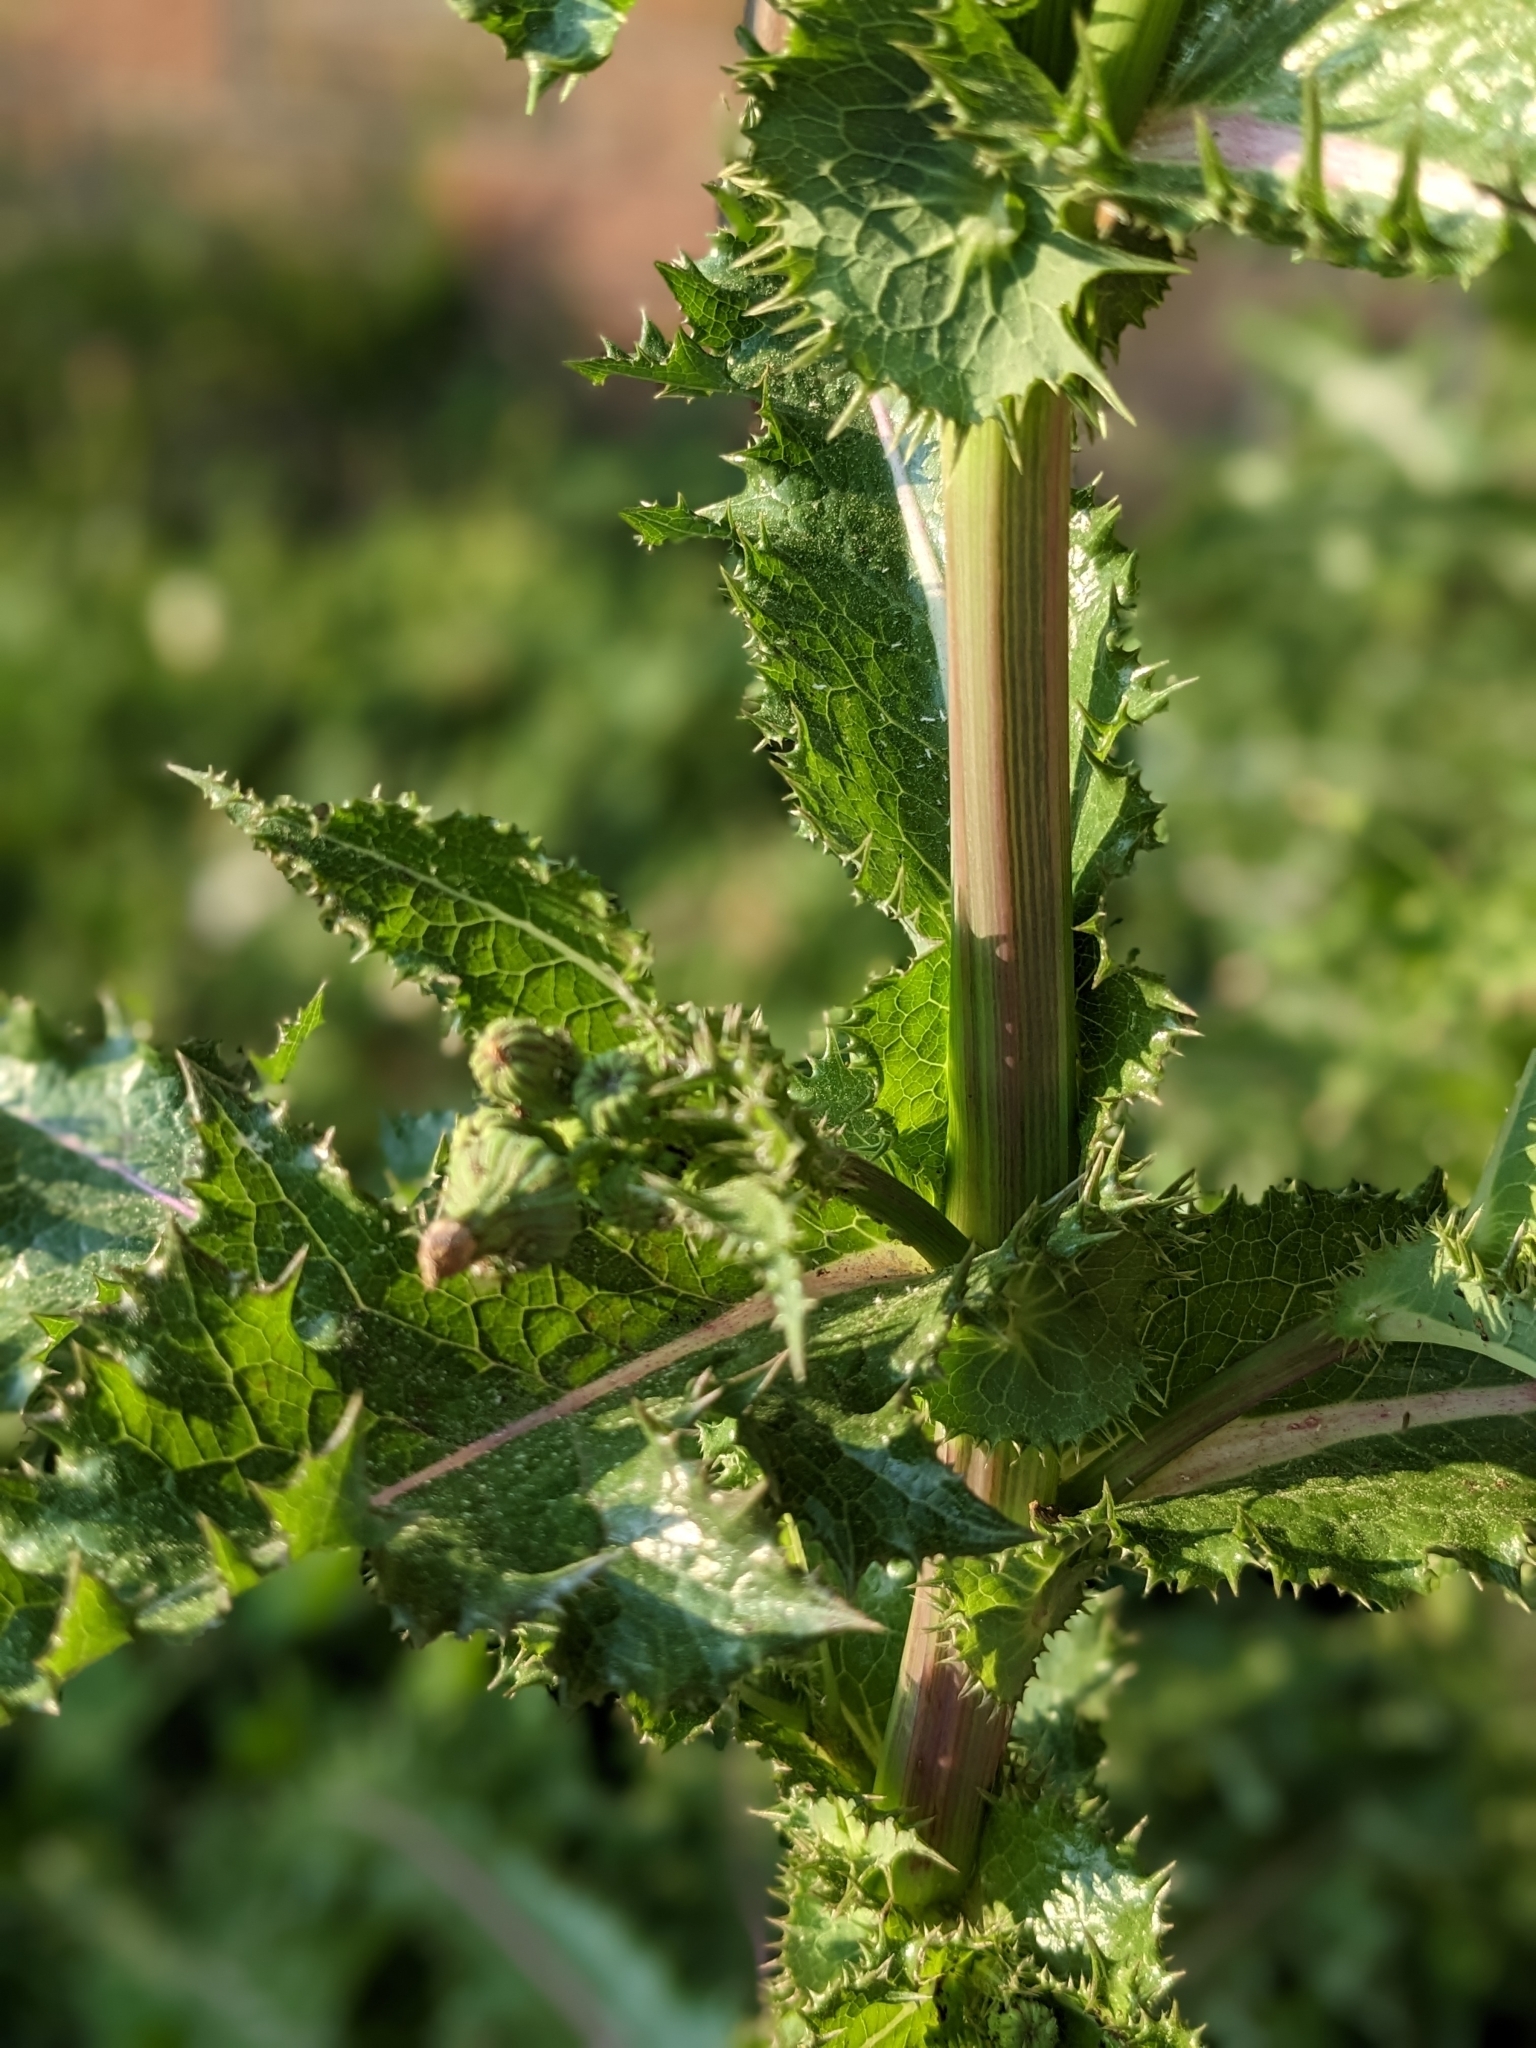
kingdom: Plantae
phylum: Tracheophyta
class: Magnoliopsida
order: Asterales
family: Asteraceae
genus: Sonchus
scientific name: Sonchus asper
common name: Prickly sow-thistle
